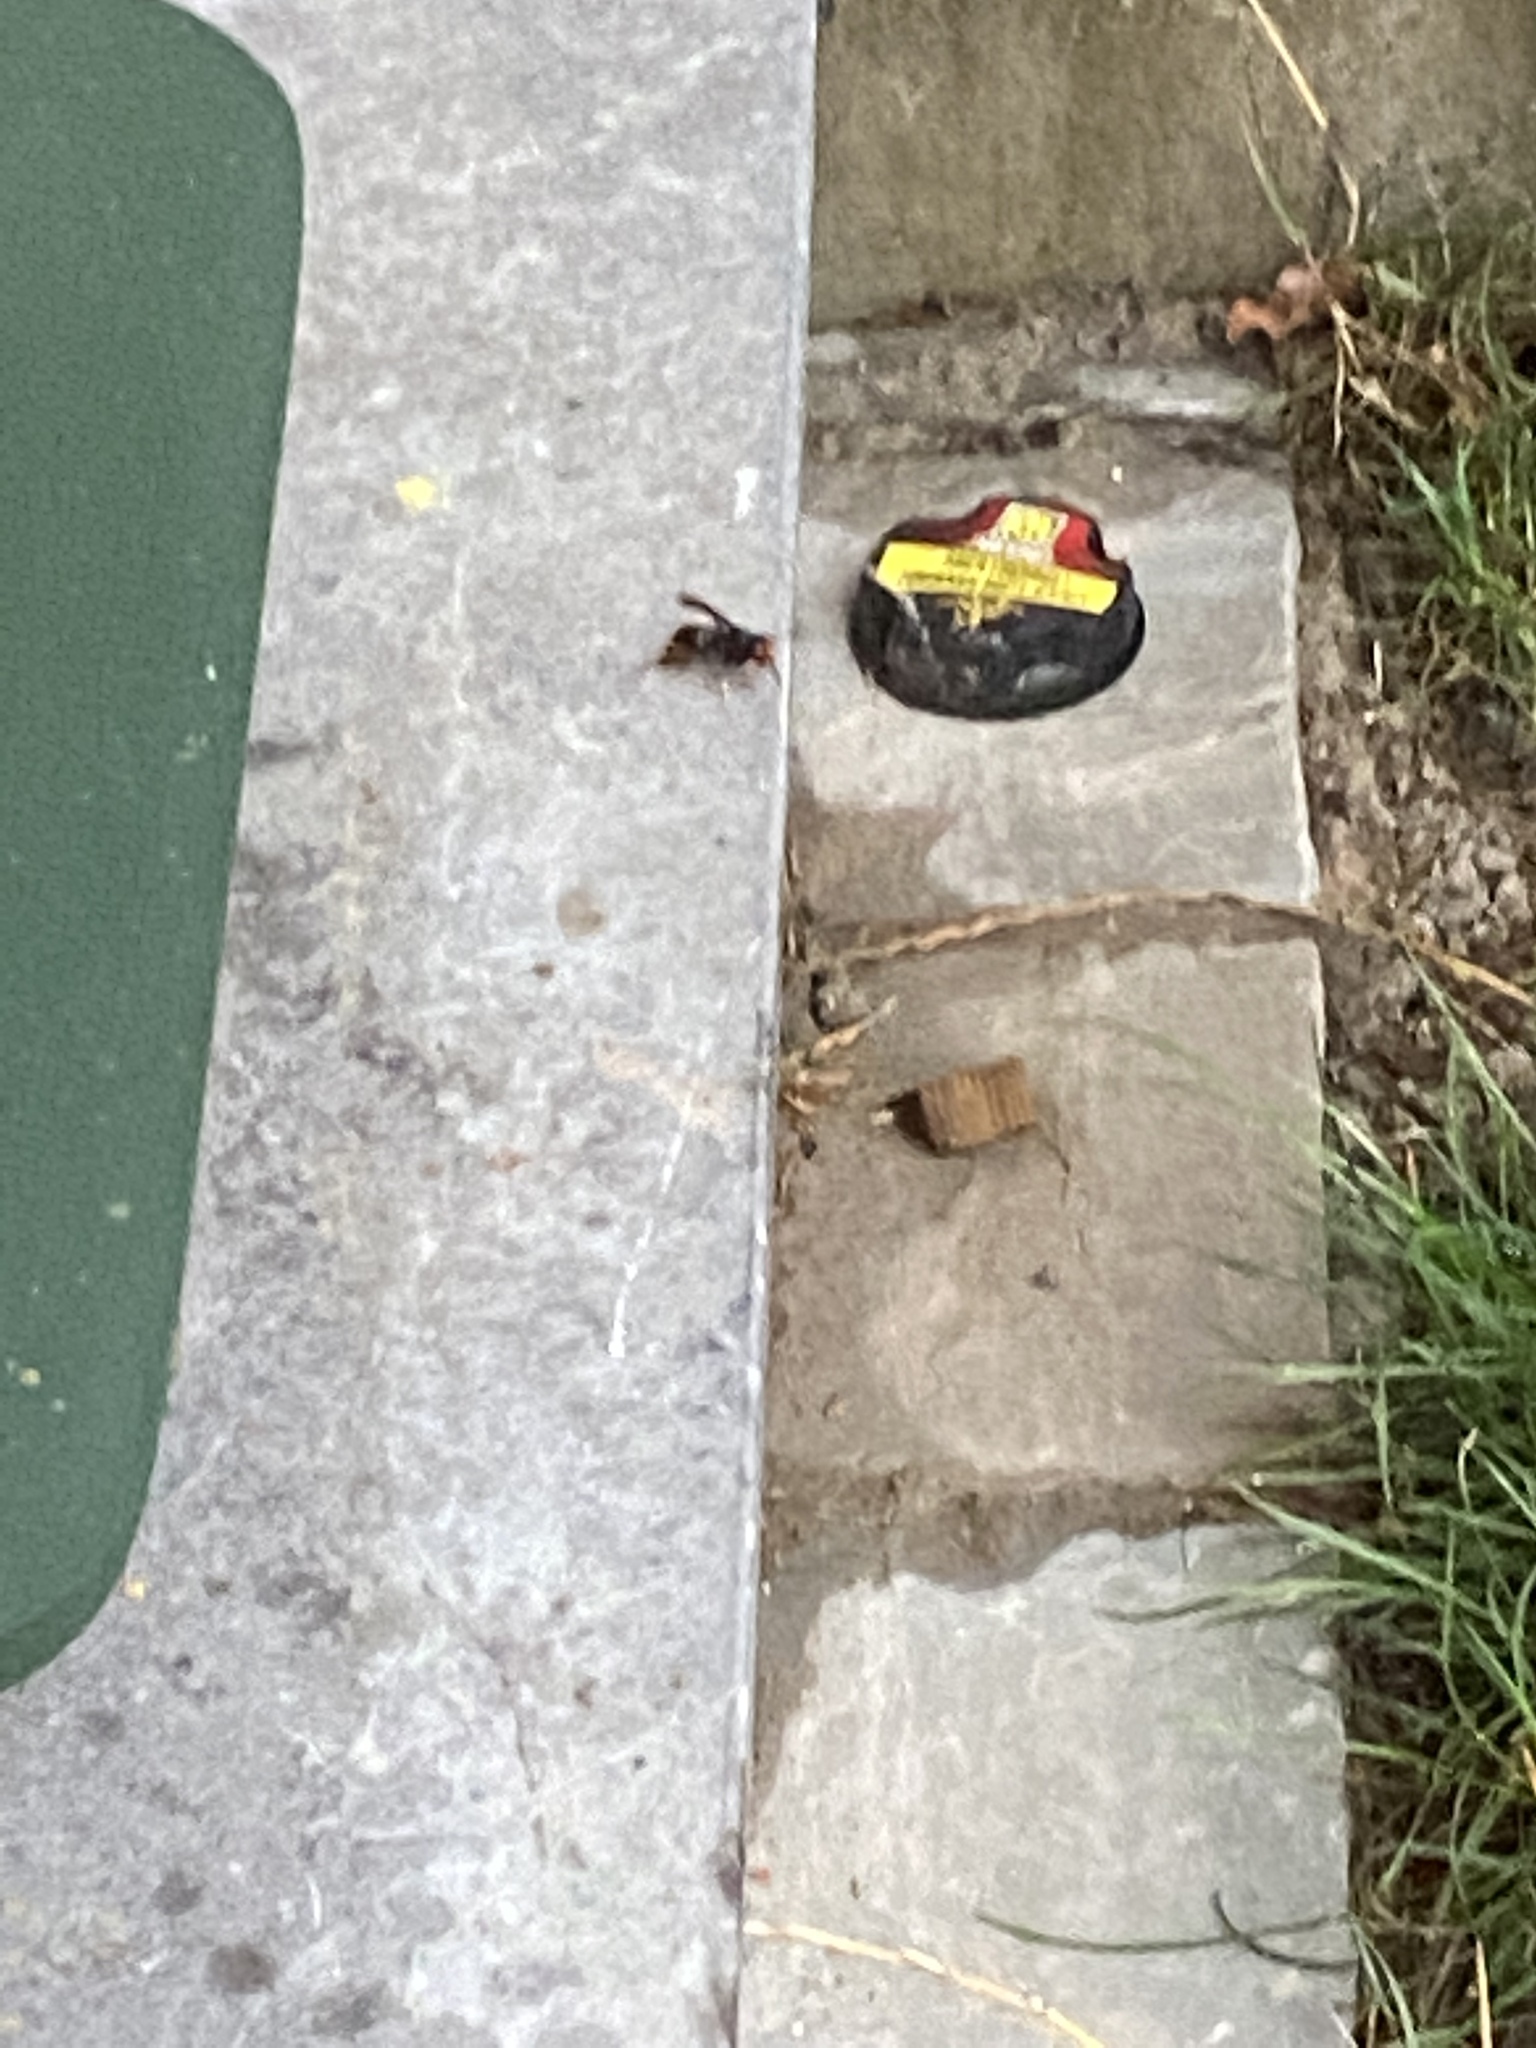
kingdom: Animalia
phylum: Arthropoda
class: Insecta
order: Hymenoptera
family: Vespidae
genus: Vespa
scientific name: Vespa velutina
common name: Asian hornet
